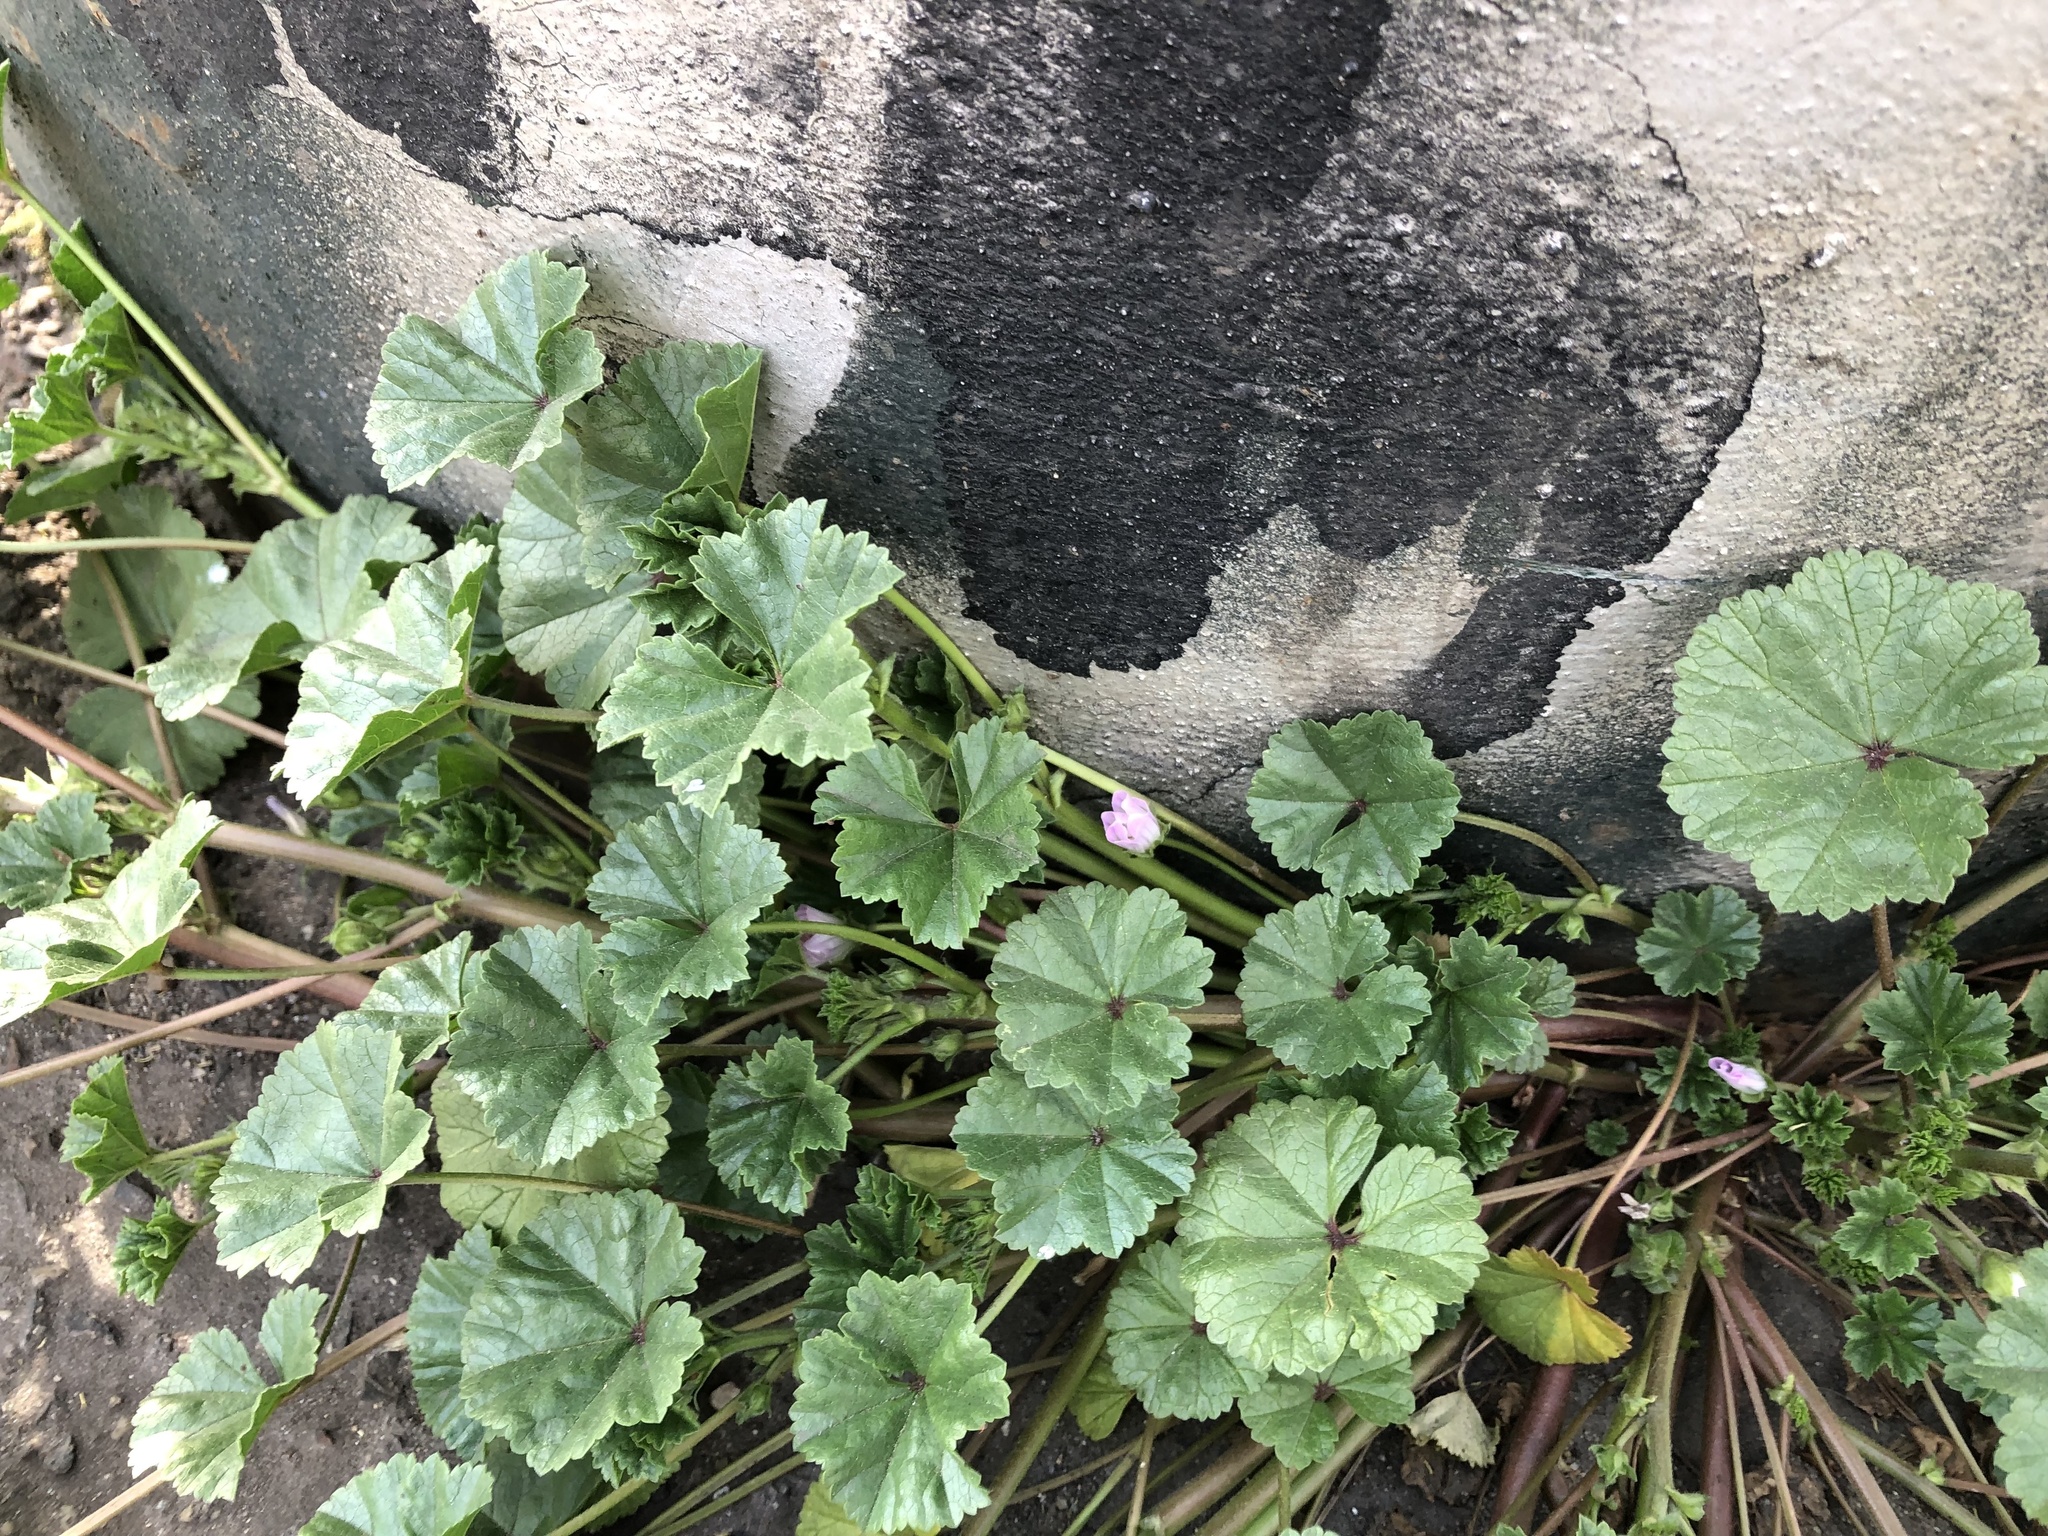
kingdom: Plantae
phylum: Tracheophyta
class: Magnoliopsida
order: Malvales
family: Malvaceae
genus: Malva
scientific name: Malva neglecta
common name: Common mallow
